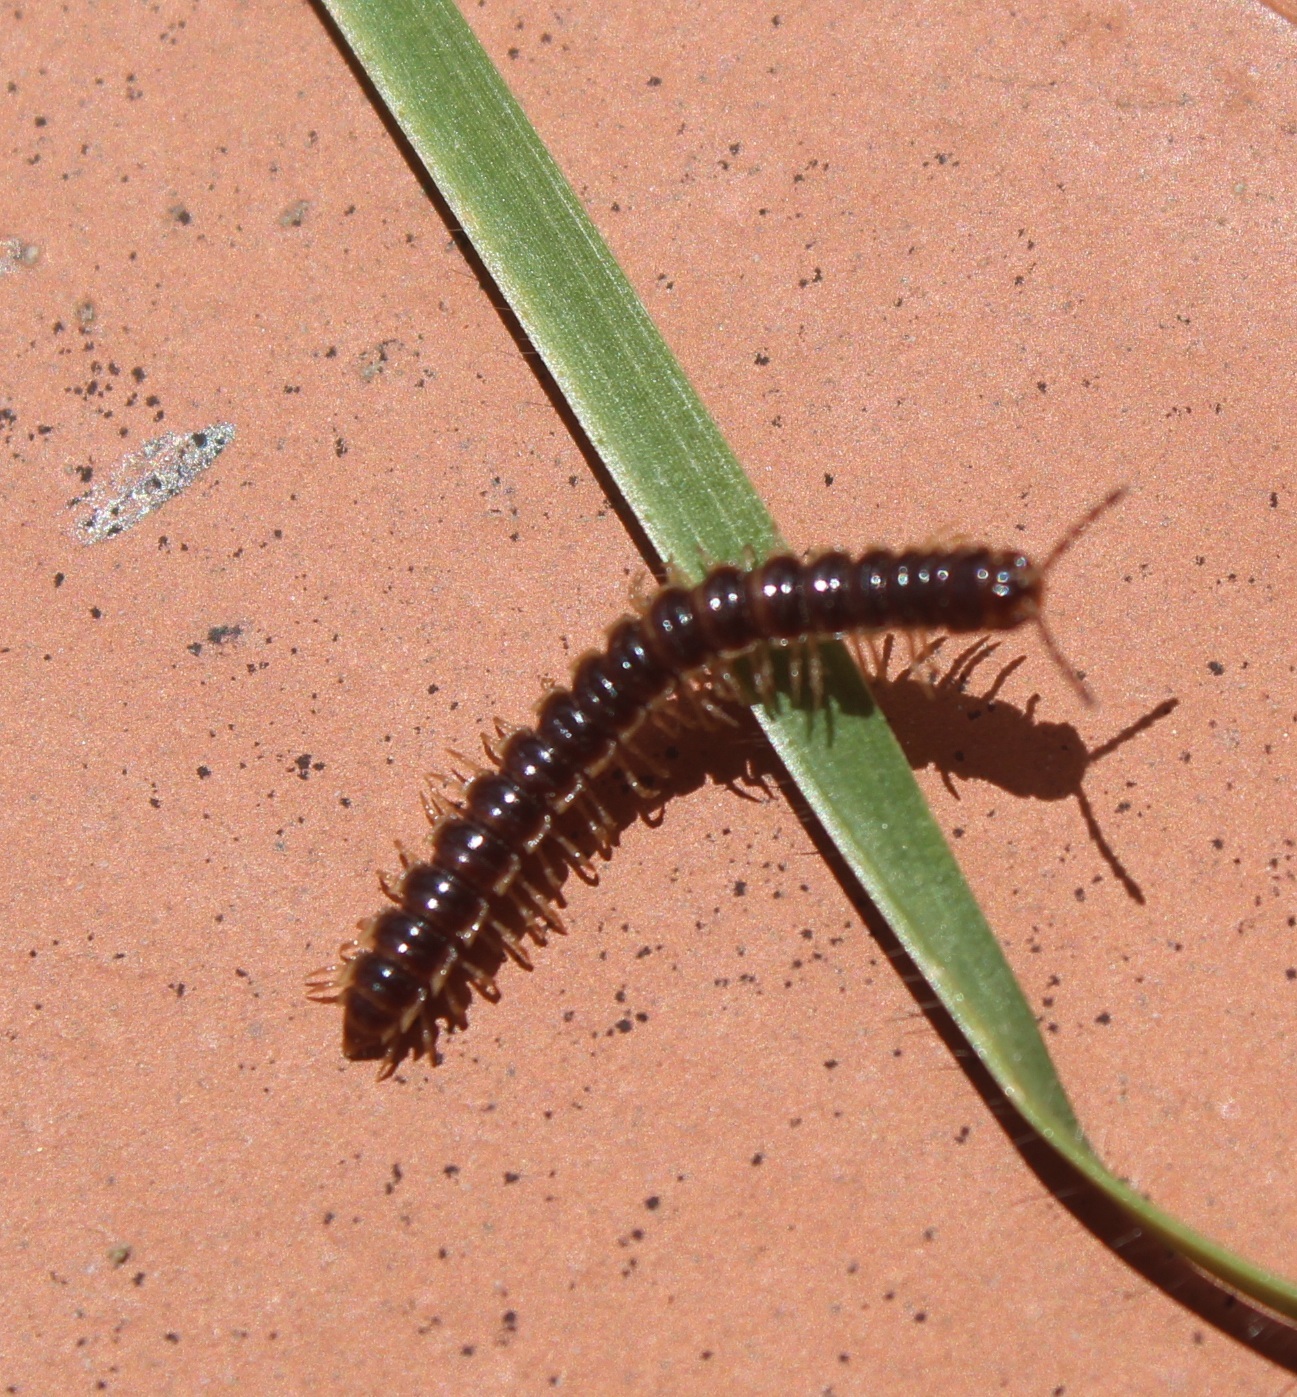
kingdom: Animalia
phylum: Arthropoda
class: Diplopoda
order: Polydesmida
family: Paradoxosomatidae
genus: Oxidus
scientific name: Oxidus gracilis
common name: Greenhouse millipede
